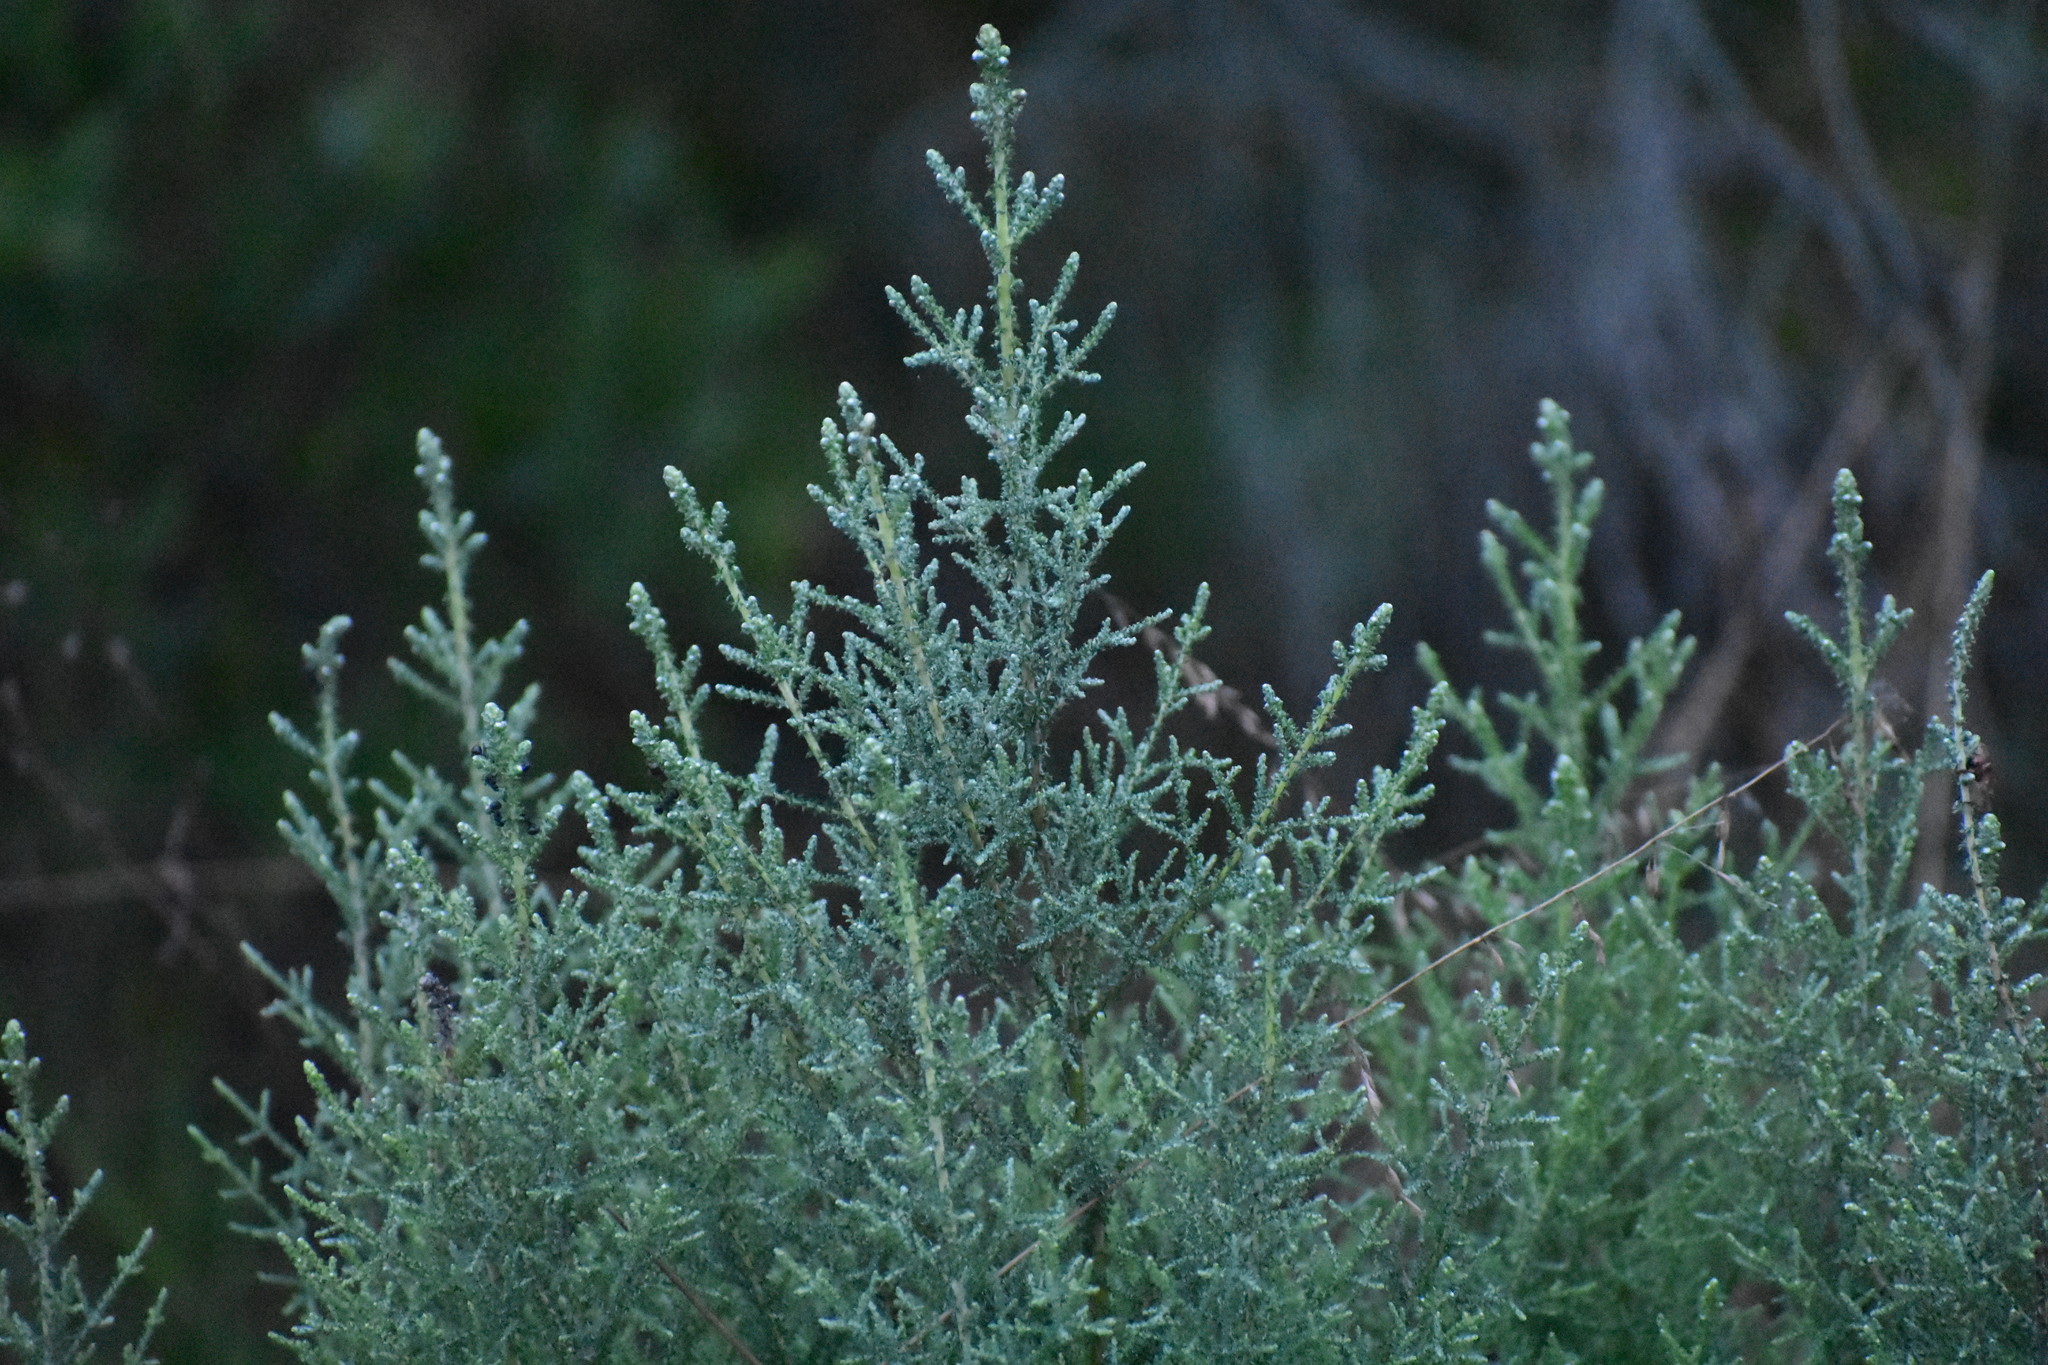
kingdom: Plantae
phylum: Tracheophyta
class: Magnoliopsida
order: Asterales
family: Asteraceae
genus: Seriphium
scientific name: Seriphium plumosum
